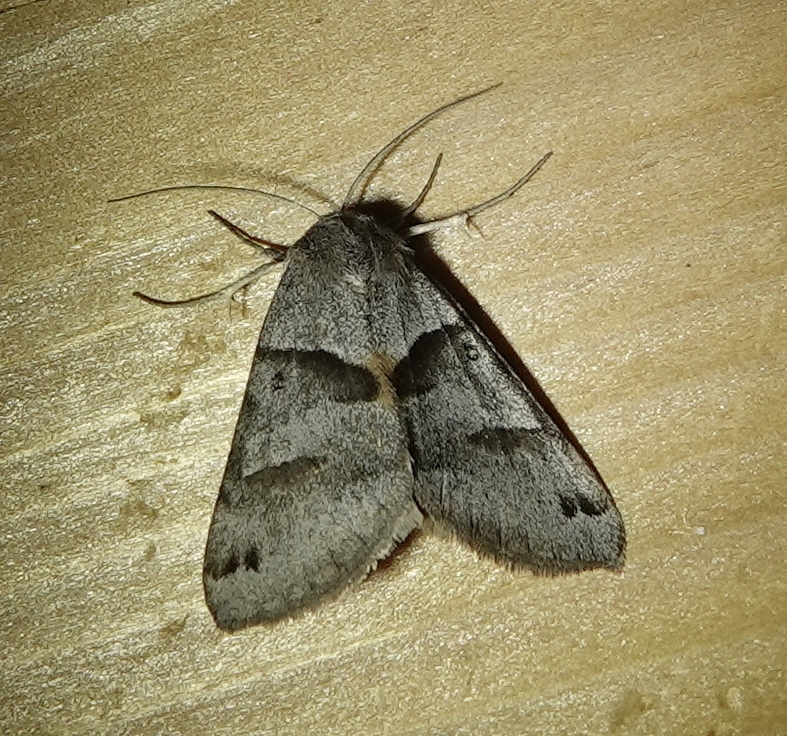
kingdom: Animalia
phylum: Arthropoda
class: Insecta
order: Lepidoptera
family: Erebidae
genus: Caenurgina
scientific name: Caenurgina erechtea
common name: Forage looper moth
